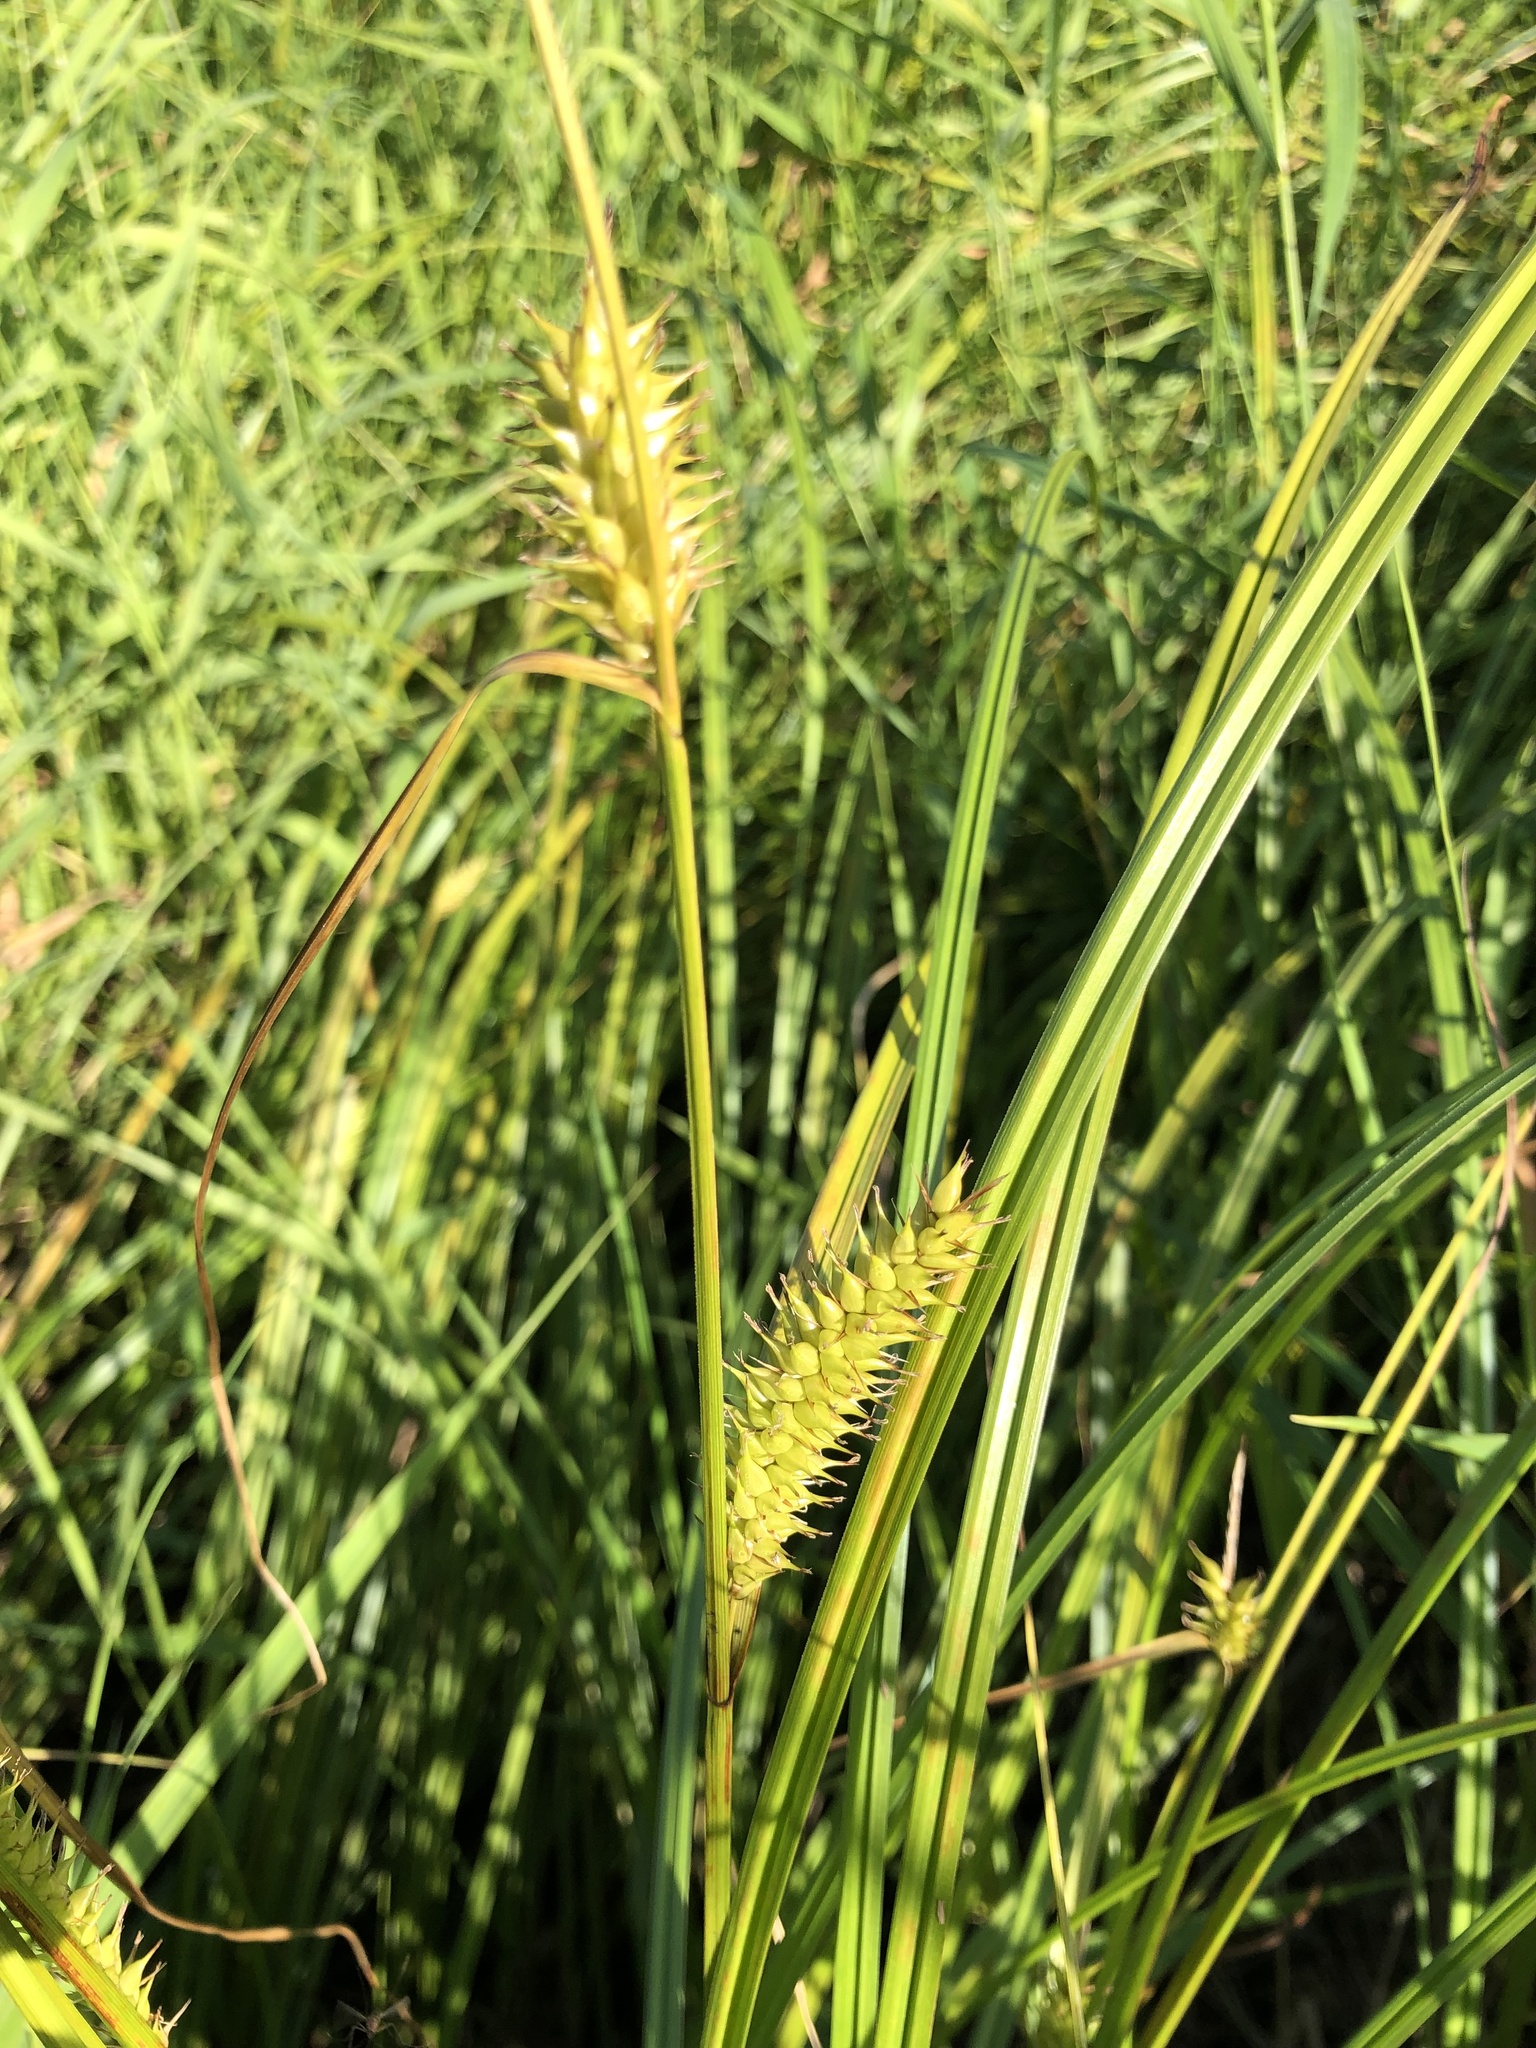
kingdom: Plantae
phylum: Tracheophyta
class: Liliopsida
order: Poales
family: Cyperaceae
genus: Carex
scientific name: Carex vesicaria
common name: Bladder-sedge
